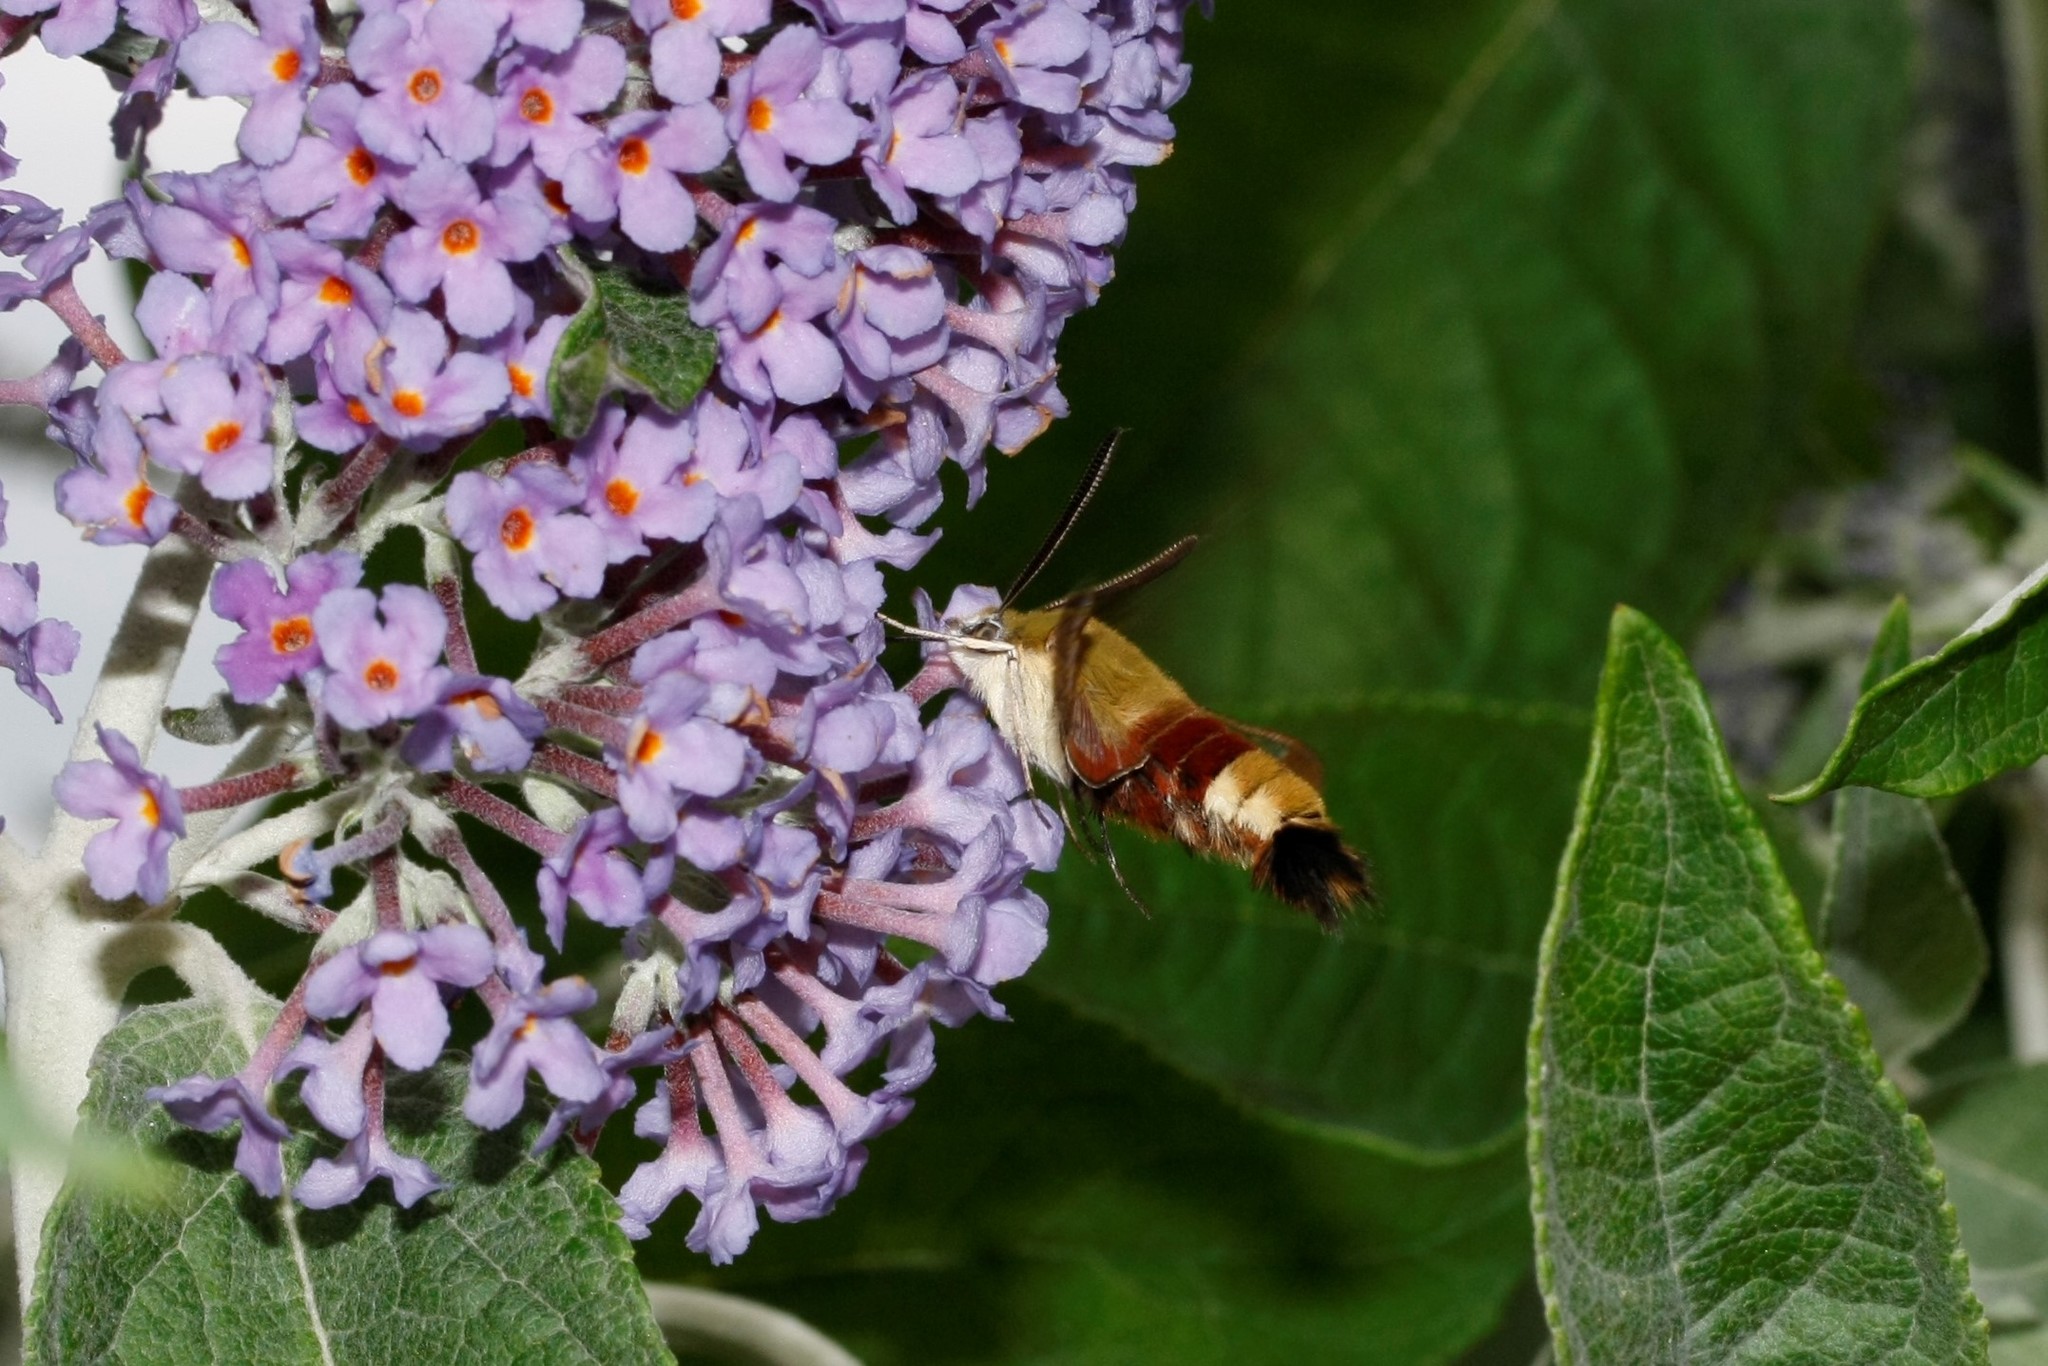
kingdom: Animalia
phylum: Arthropoda
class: Insecta
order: Lepidoptera
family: Sphingidae
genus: Hemaris
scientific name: Hemaris fuciformis
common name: Broad-bordered bee hawk-moth
